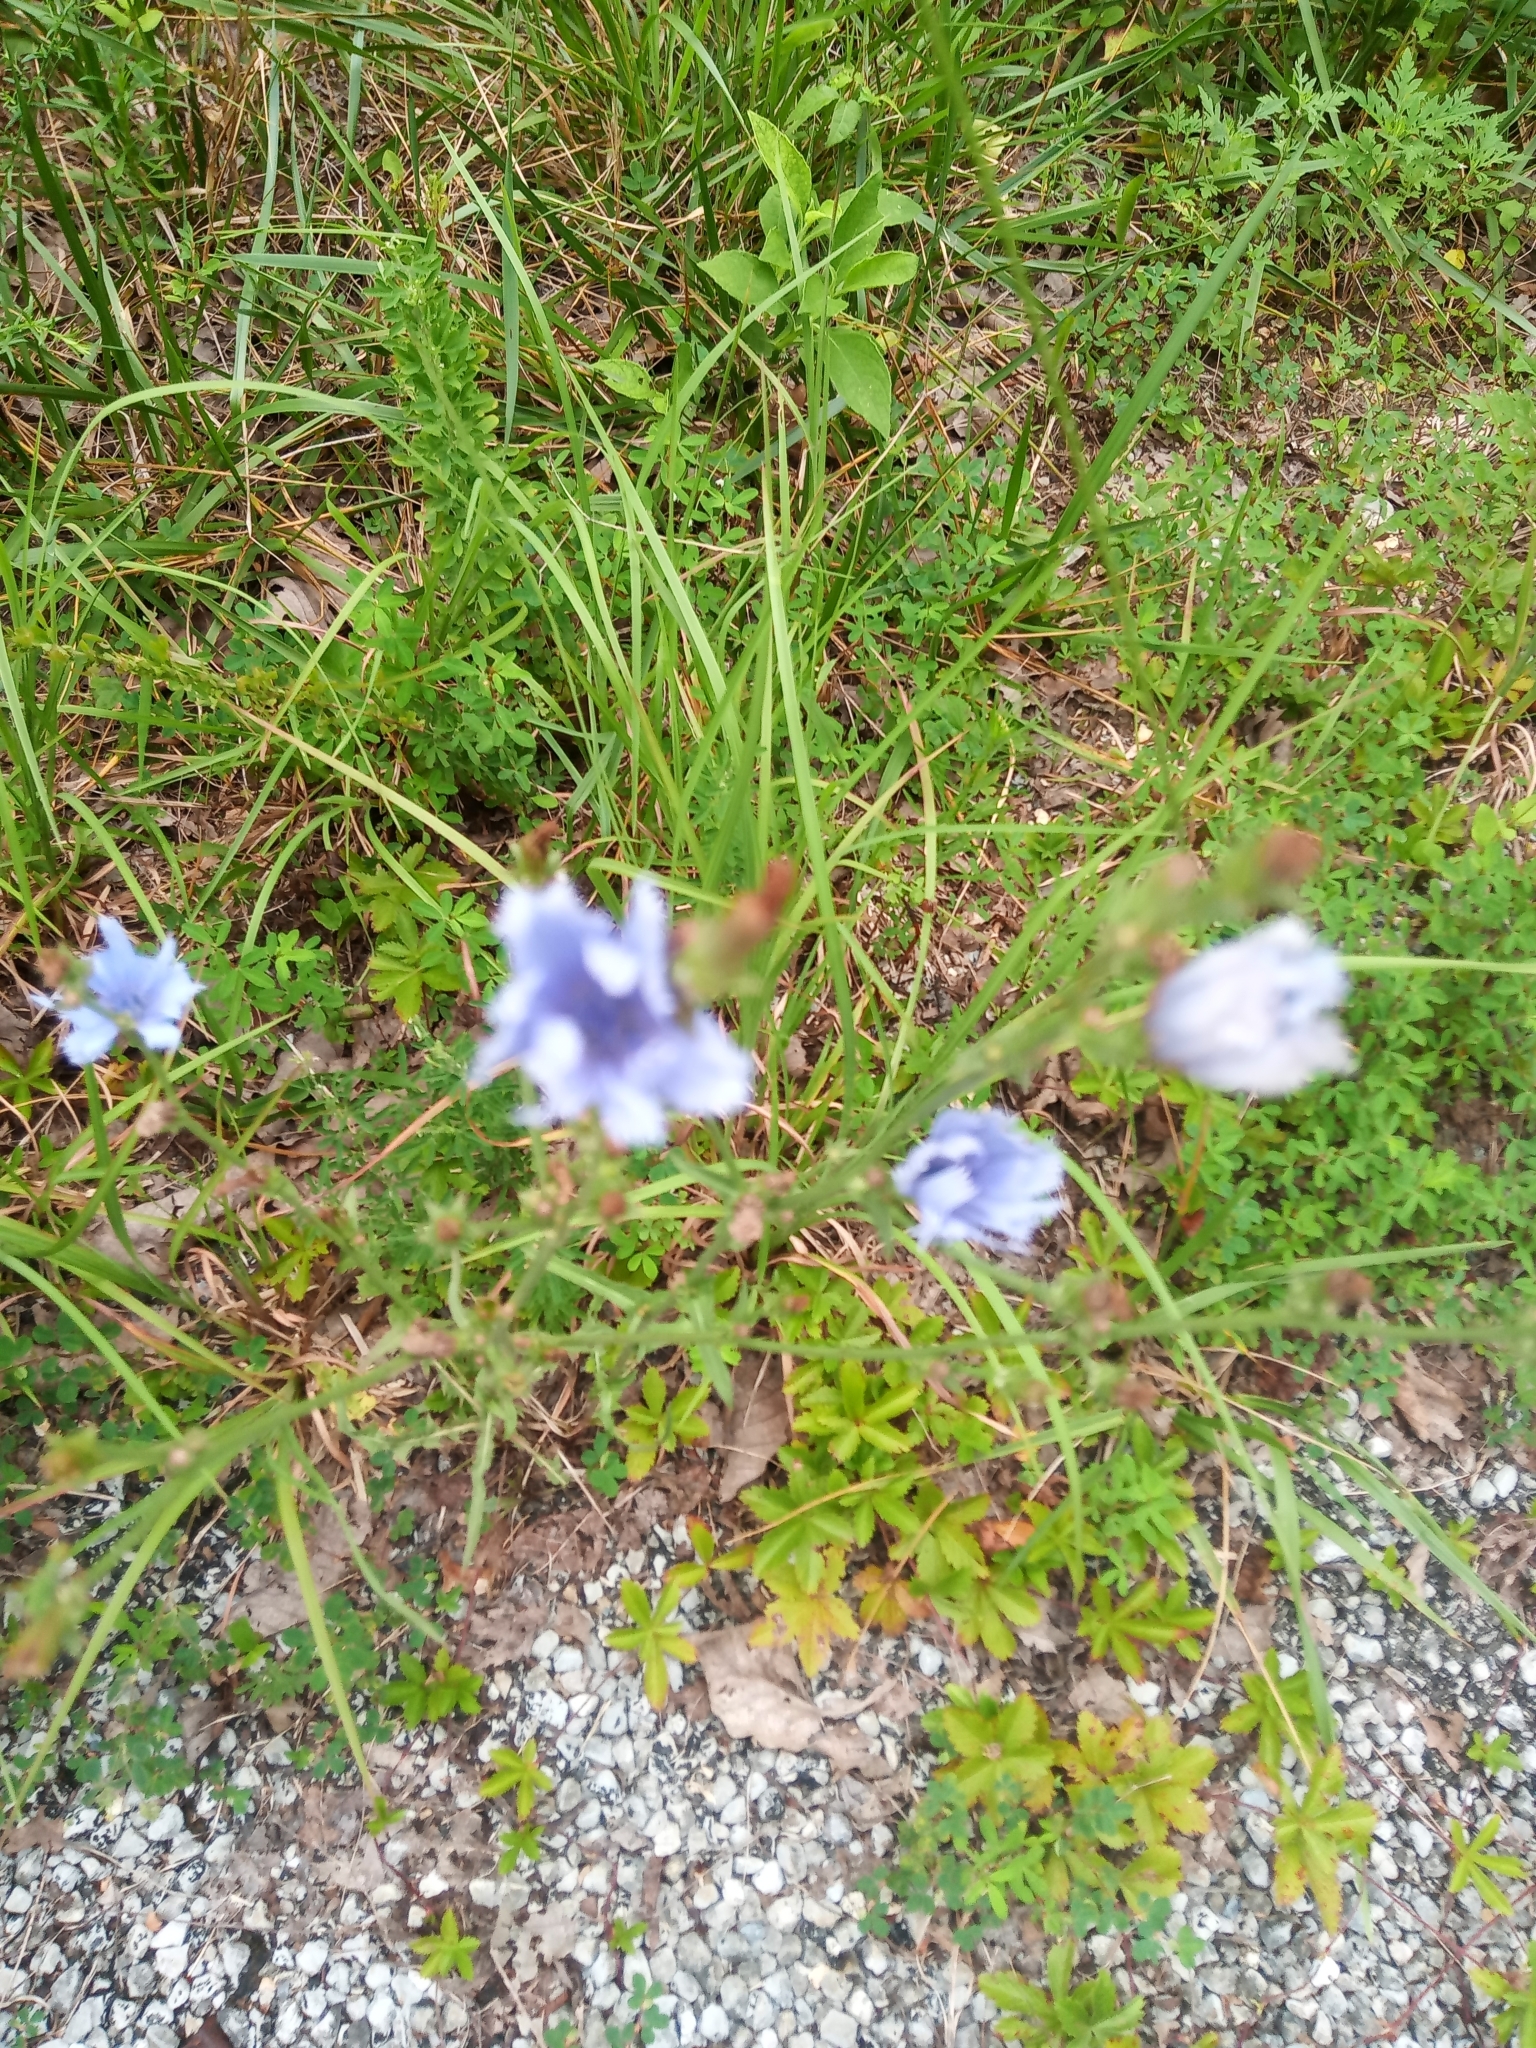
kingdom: Plantae
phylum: Tracheophyta
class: Magnoliopsida
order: Asterales
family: Asteraceae
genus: Cichorium
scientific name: Cichorium intybus
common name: Chicory
